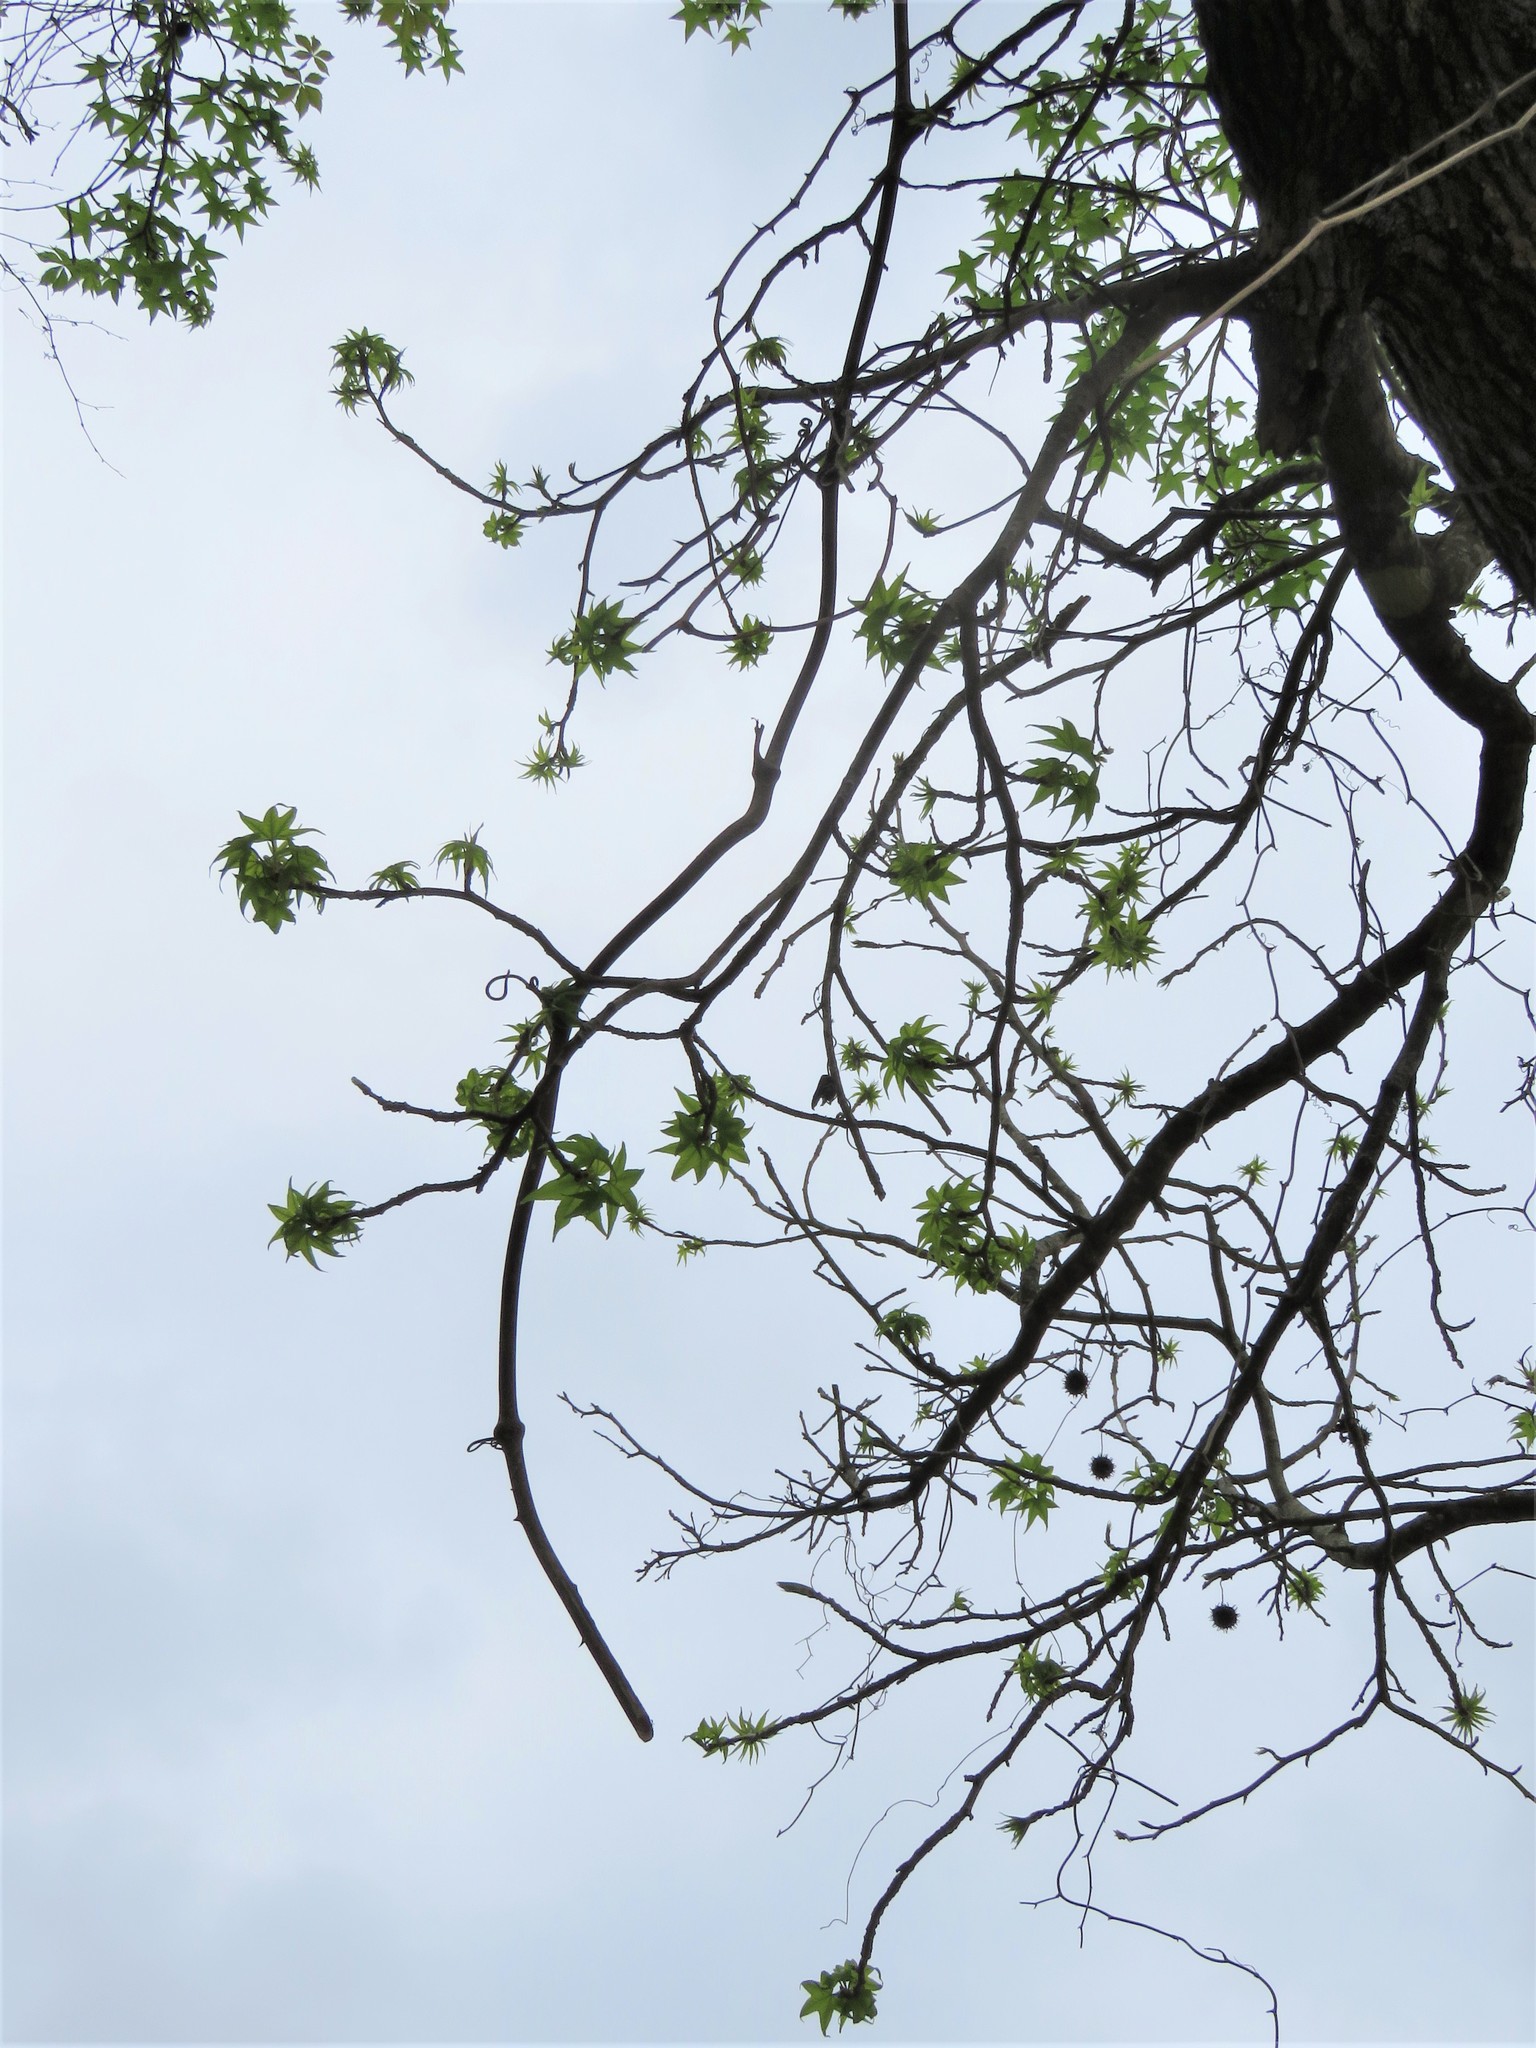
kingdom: Plantae
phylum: Tracheophyta
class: Magnoliopsida
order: Saxifragales
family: Altingiaceae
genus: Liquidambar
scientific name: Liquidambar styraciflua
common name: Sweet gum
